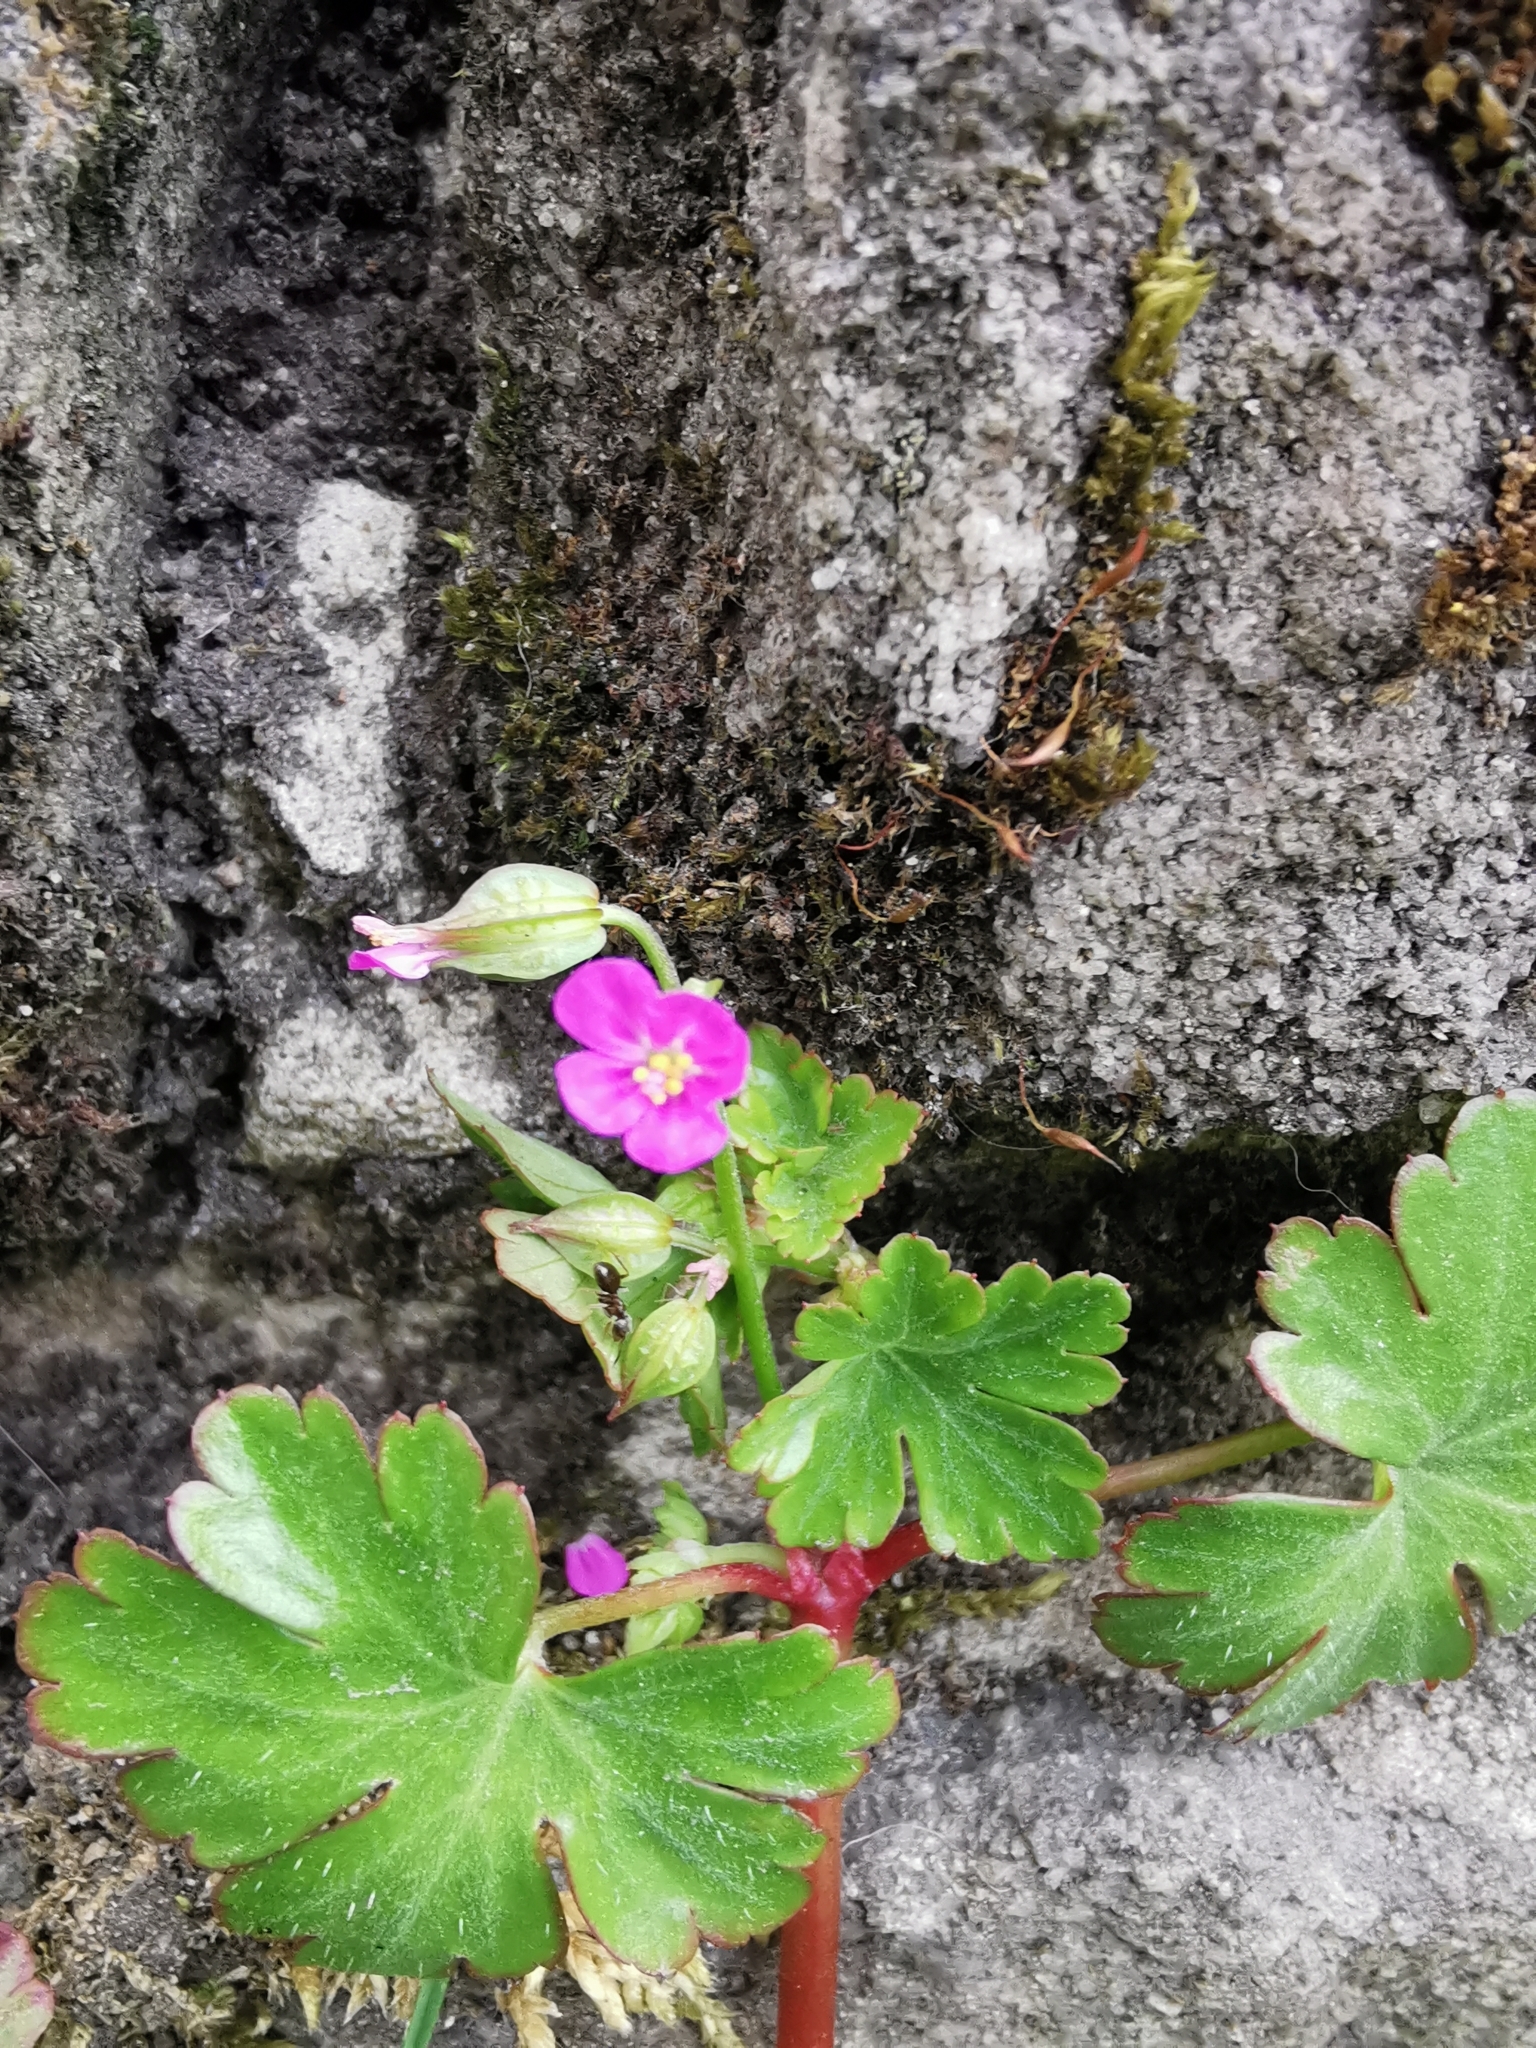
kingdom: Plantae
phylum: Tracheophyta
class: Magnoliopsida
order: Geraniales
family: Geraniaceae
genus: Geranium
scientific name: Geranium lucidum
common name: Shining crane's-bill
